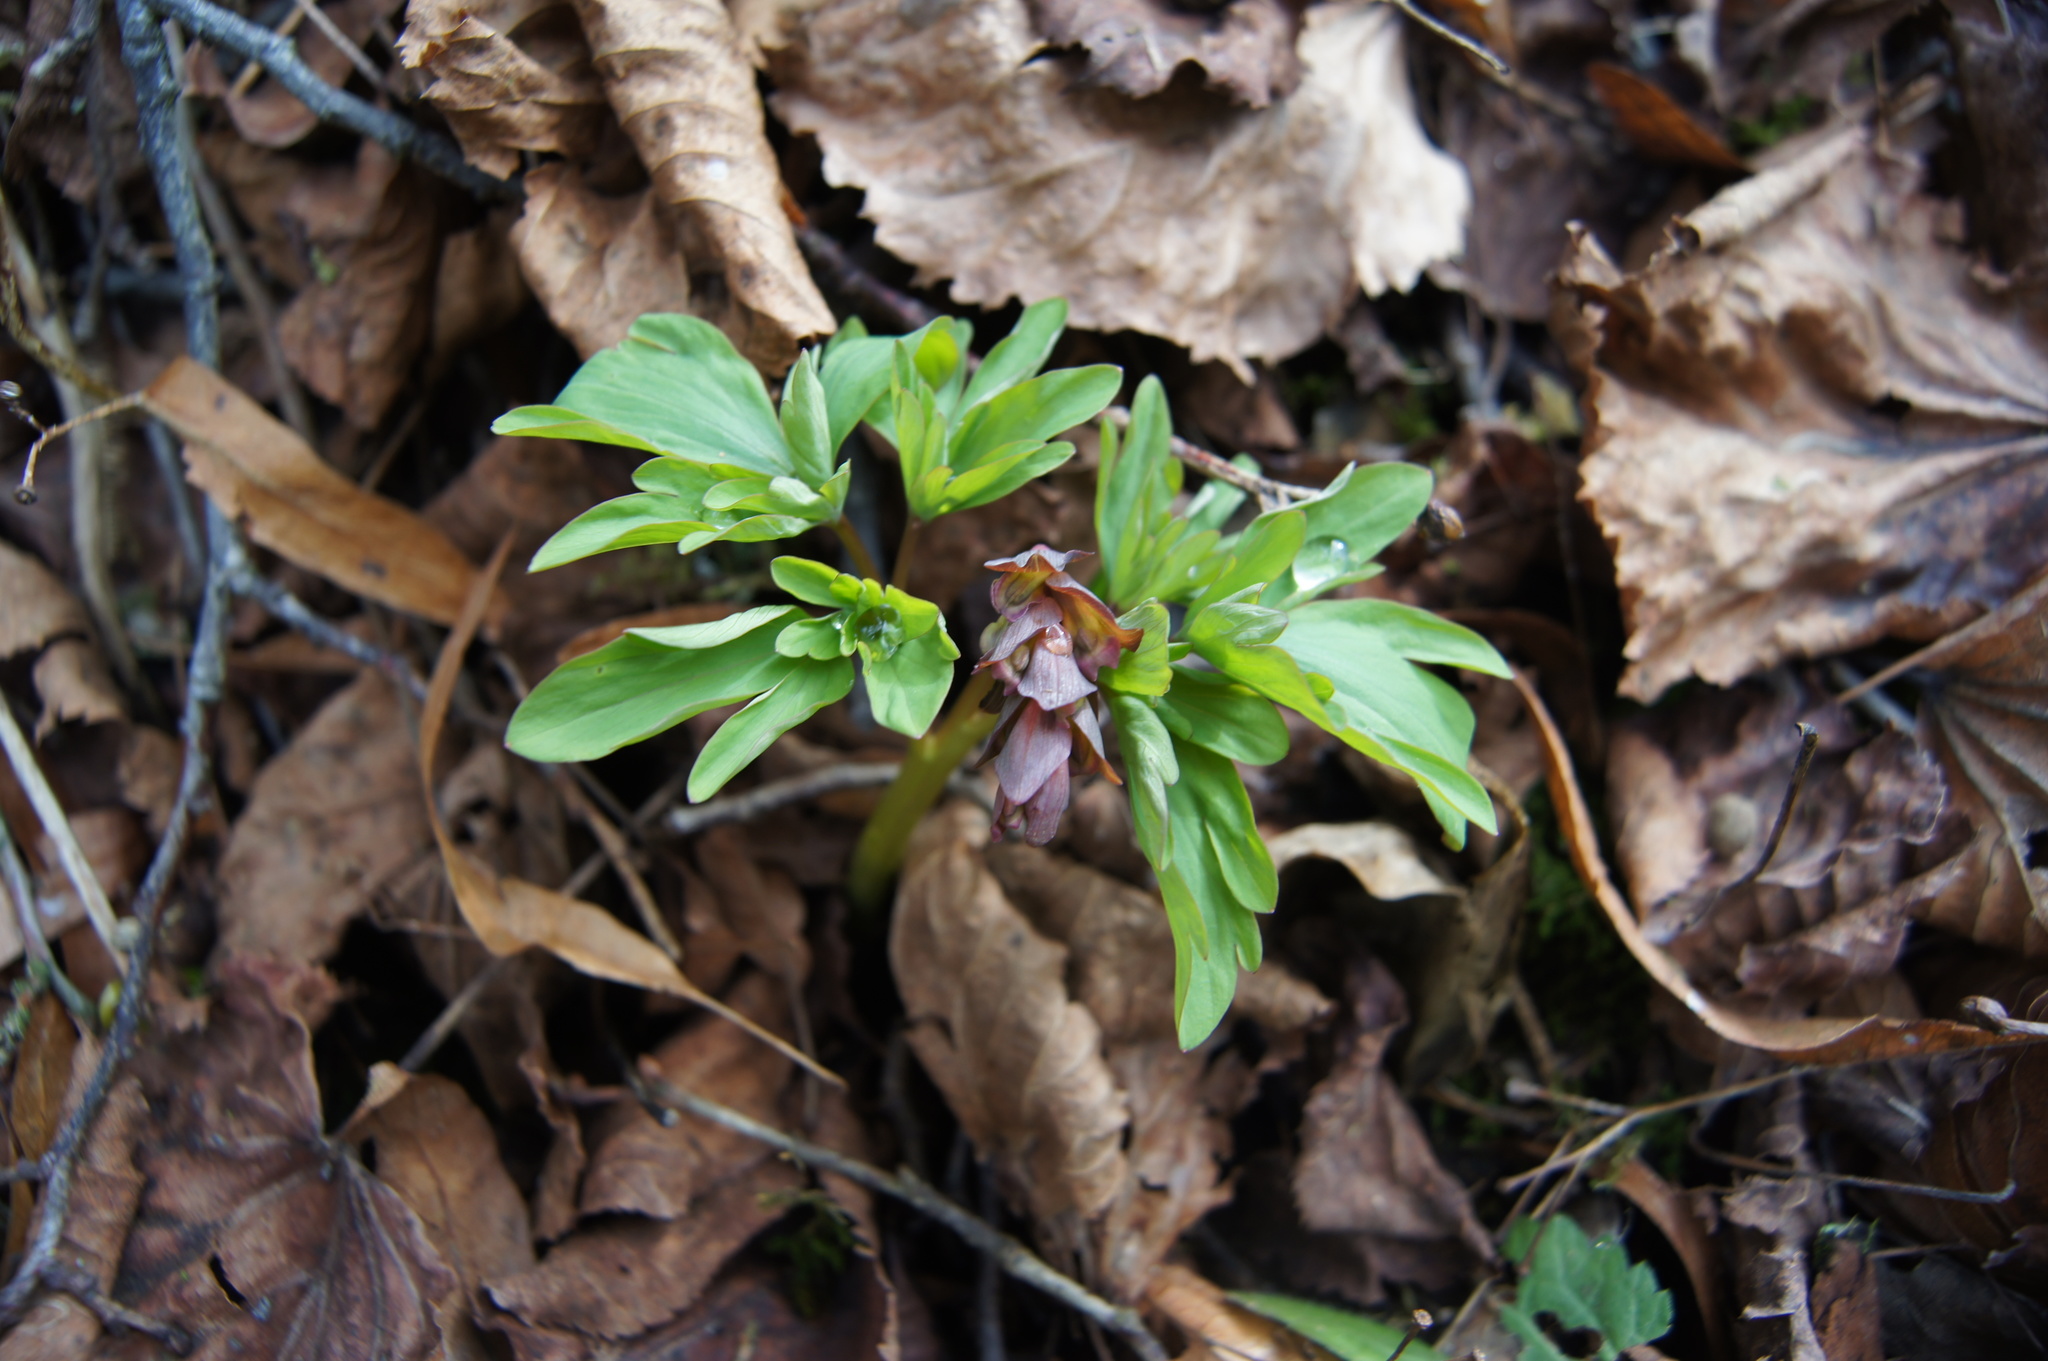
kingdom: Plantae
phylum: Tracheophyta
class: Magnoliopsida
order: Ranunculales
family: Papaveraceae
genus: Corydalis
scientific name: Corydalis cava
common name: Hollowroot
